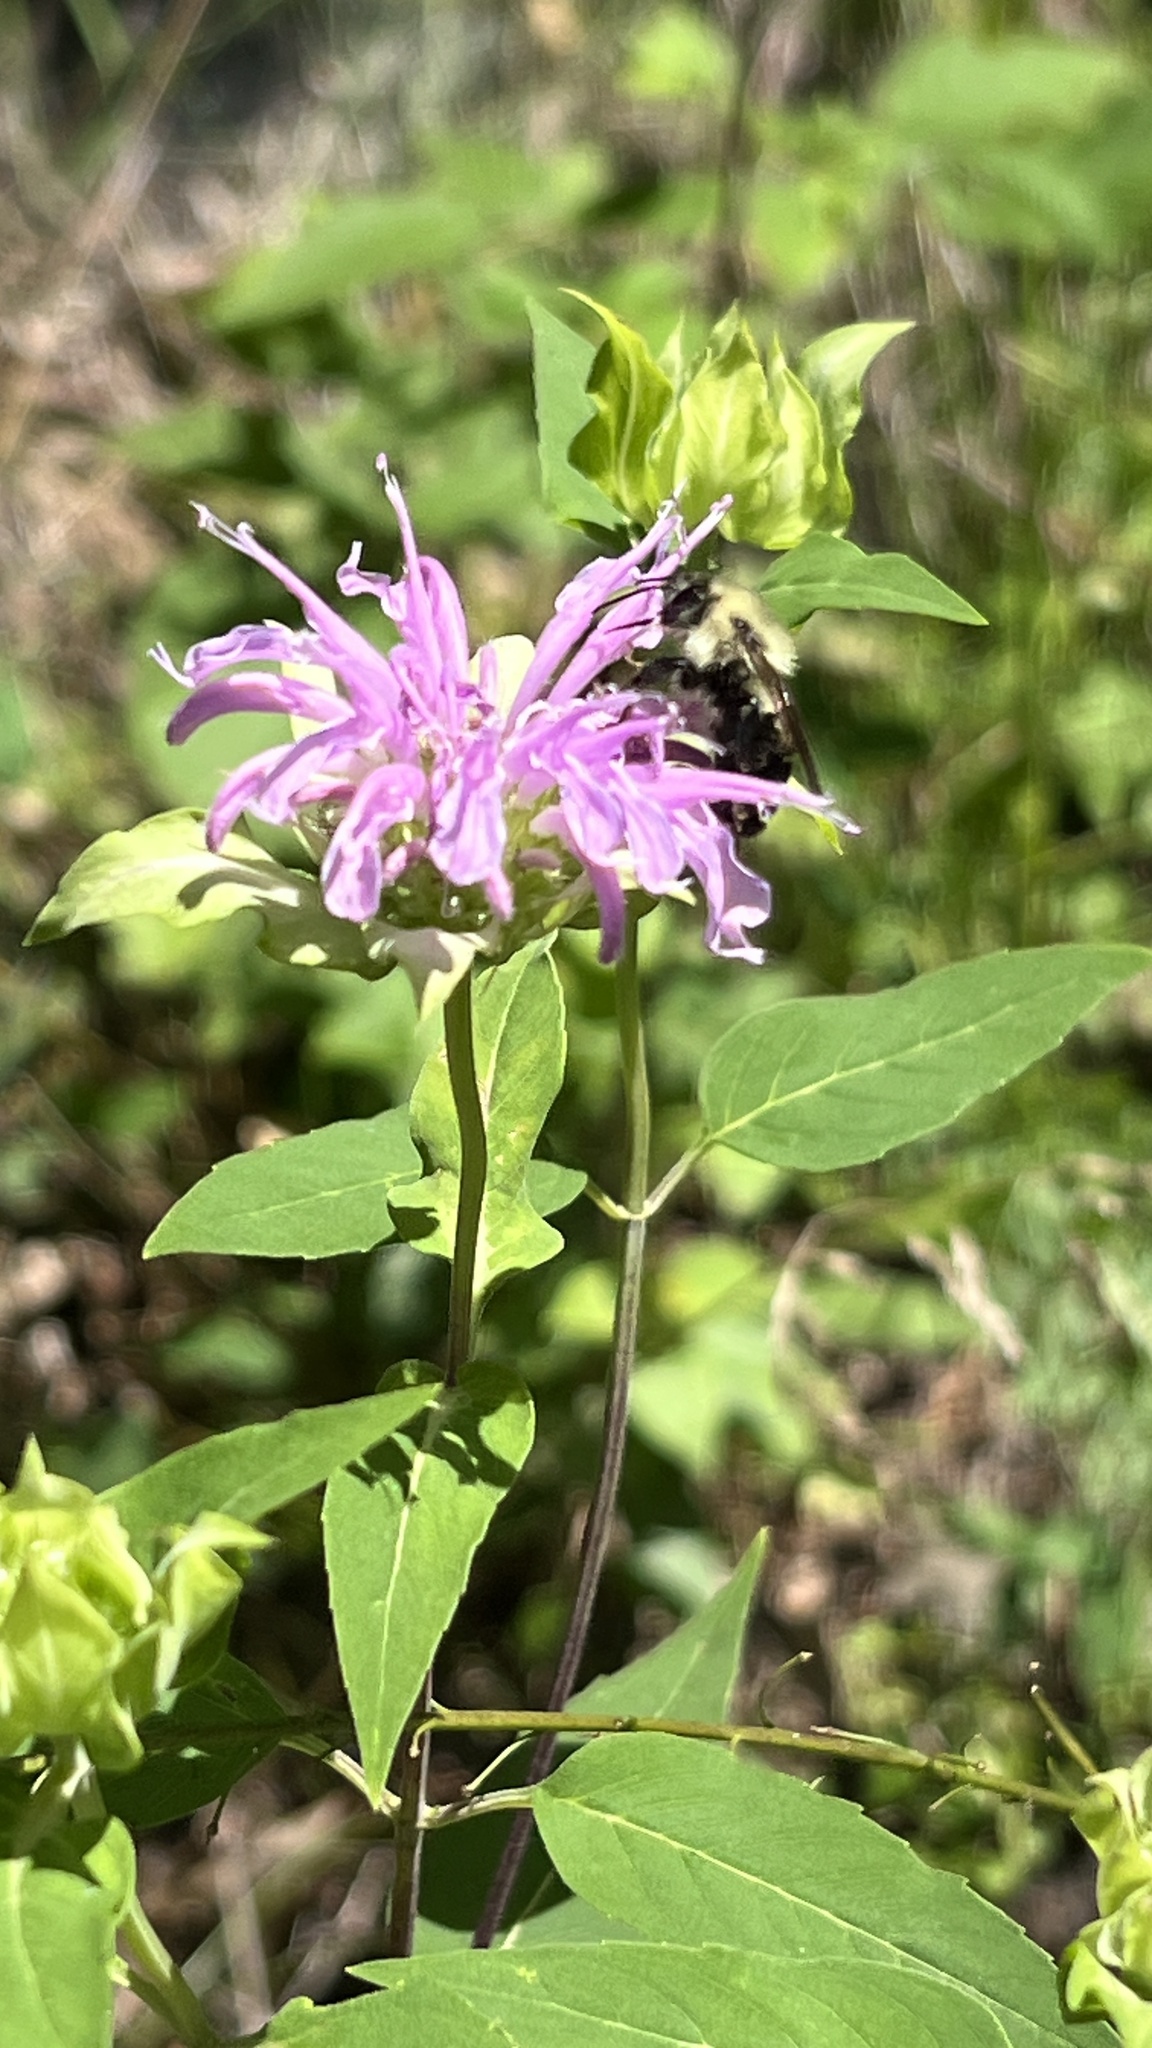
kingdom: Animalia
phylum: Arthropoda
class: Insecta
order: Hymenoptera
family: Apidae
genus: Bombus
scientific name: Bombus bimaculatus
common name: Two-spotted bumble bee
